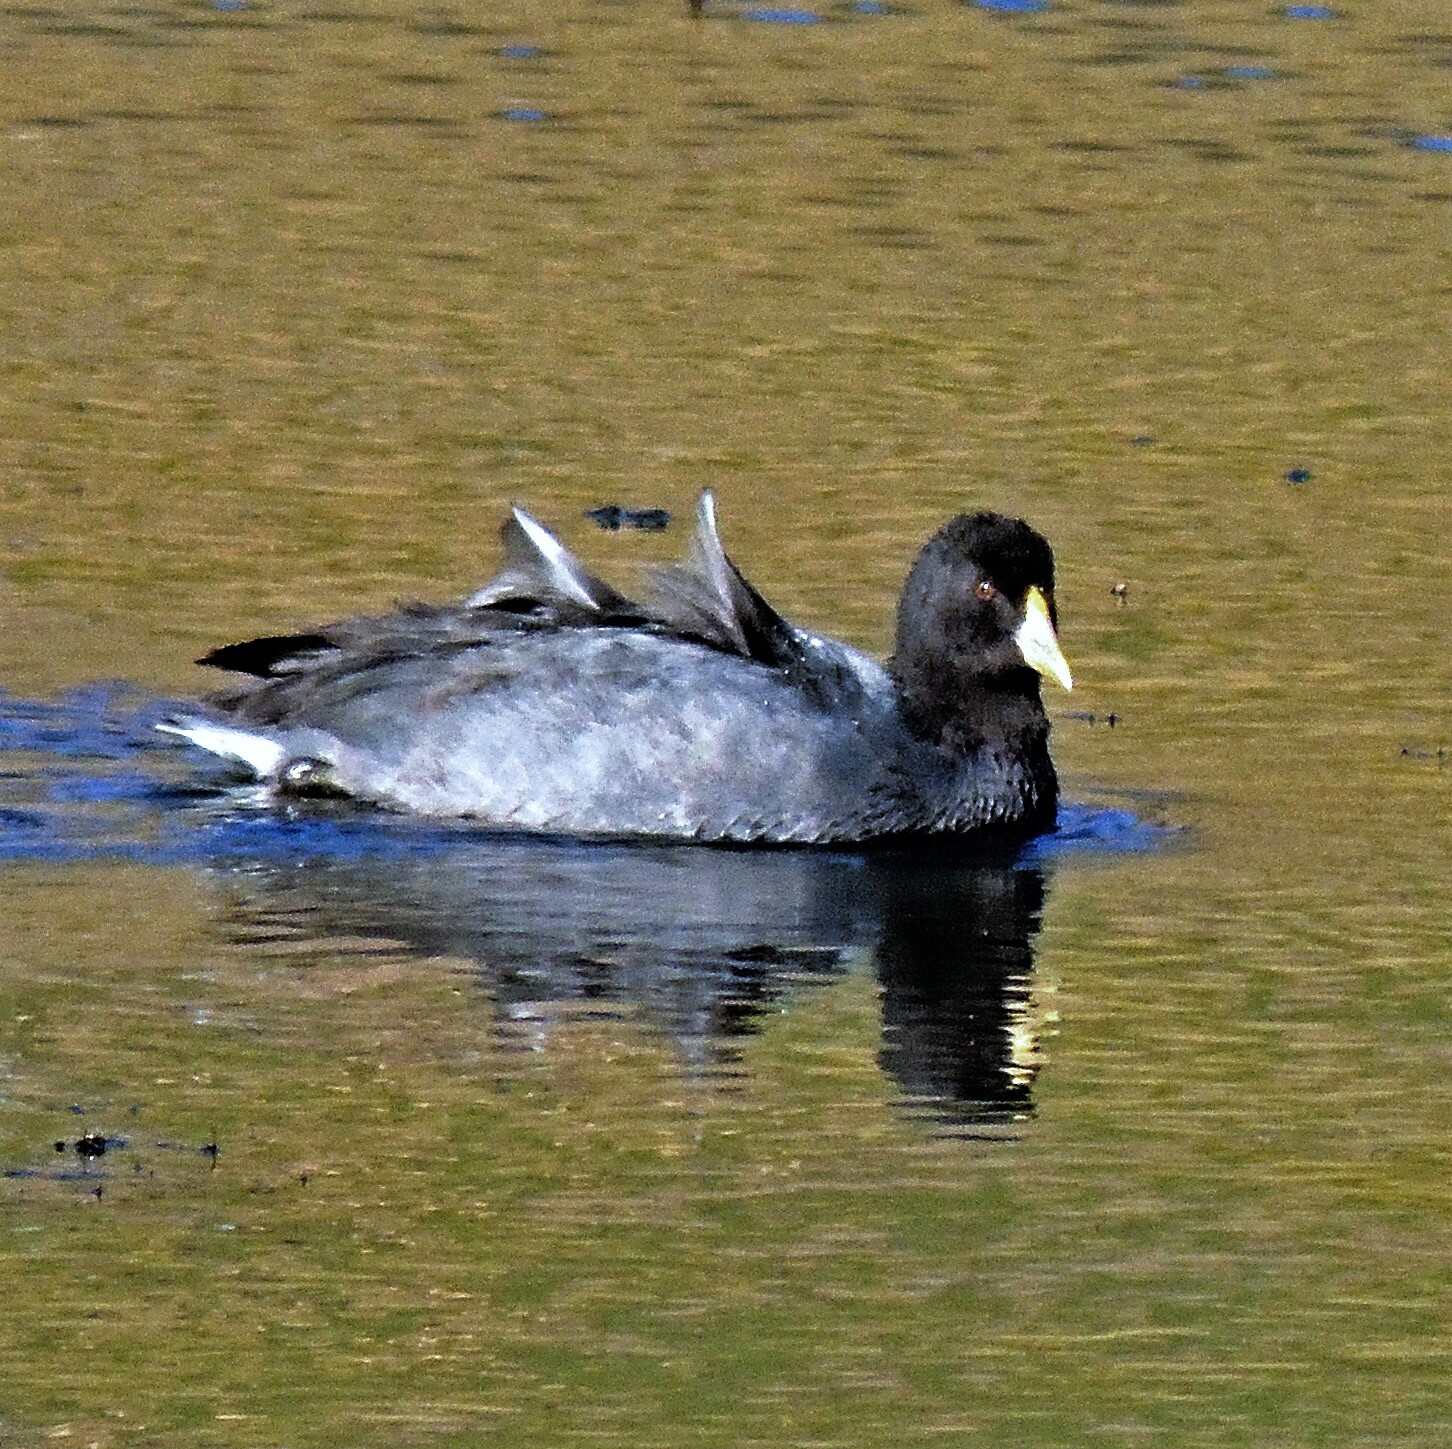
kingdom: Animalia
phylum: Chordata
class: Aves
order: Gruiformes
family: Rallidae
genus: Fulica
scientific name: Fulica leucoptera
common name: White-winged coot
